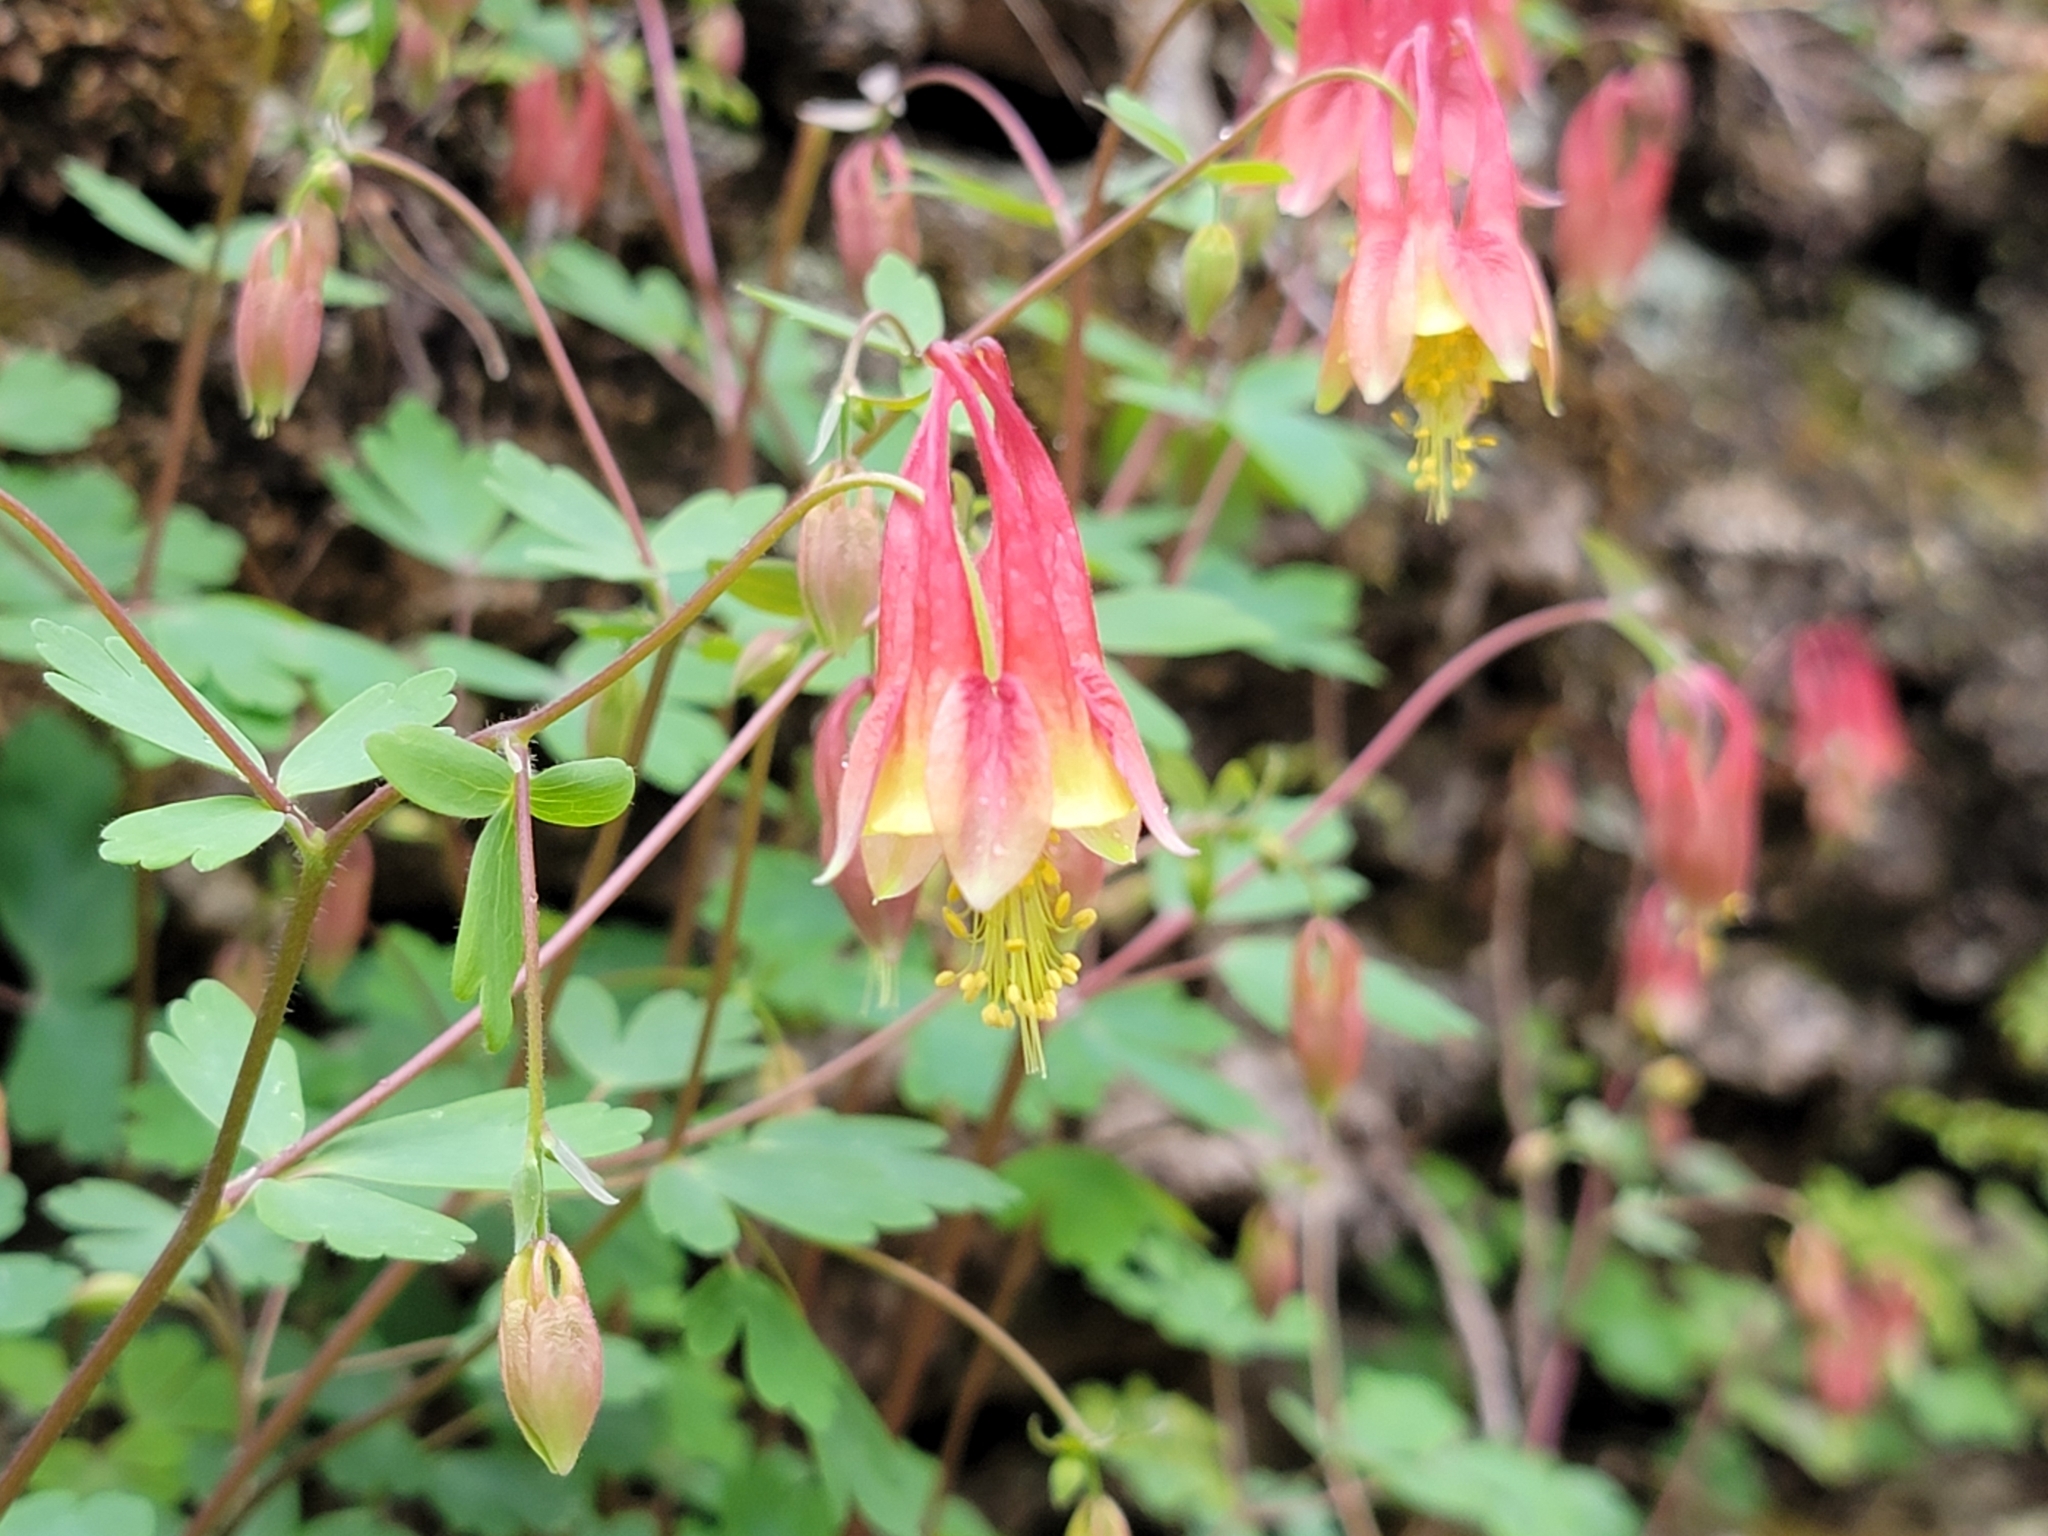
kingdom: Plantae
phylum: Tracheophyta
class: Magnoliopsida
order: Ranunculales
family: Ranunculaceae
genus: Aquilegia
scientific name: Aquilegia canadensis
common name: American columbine
